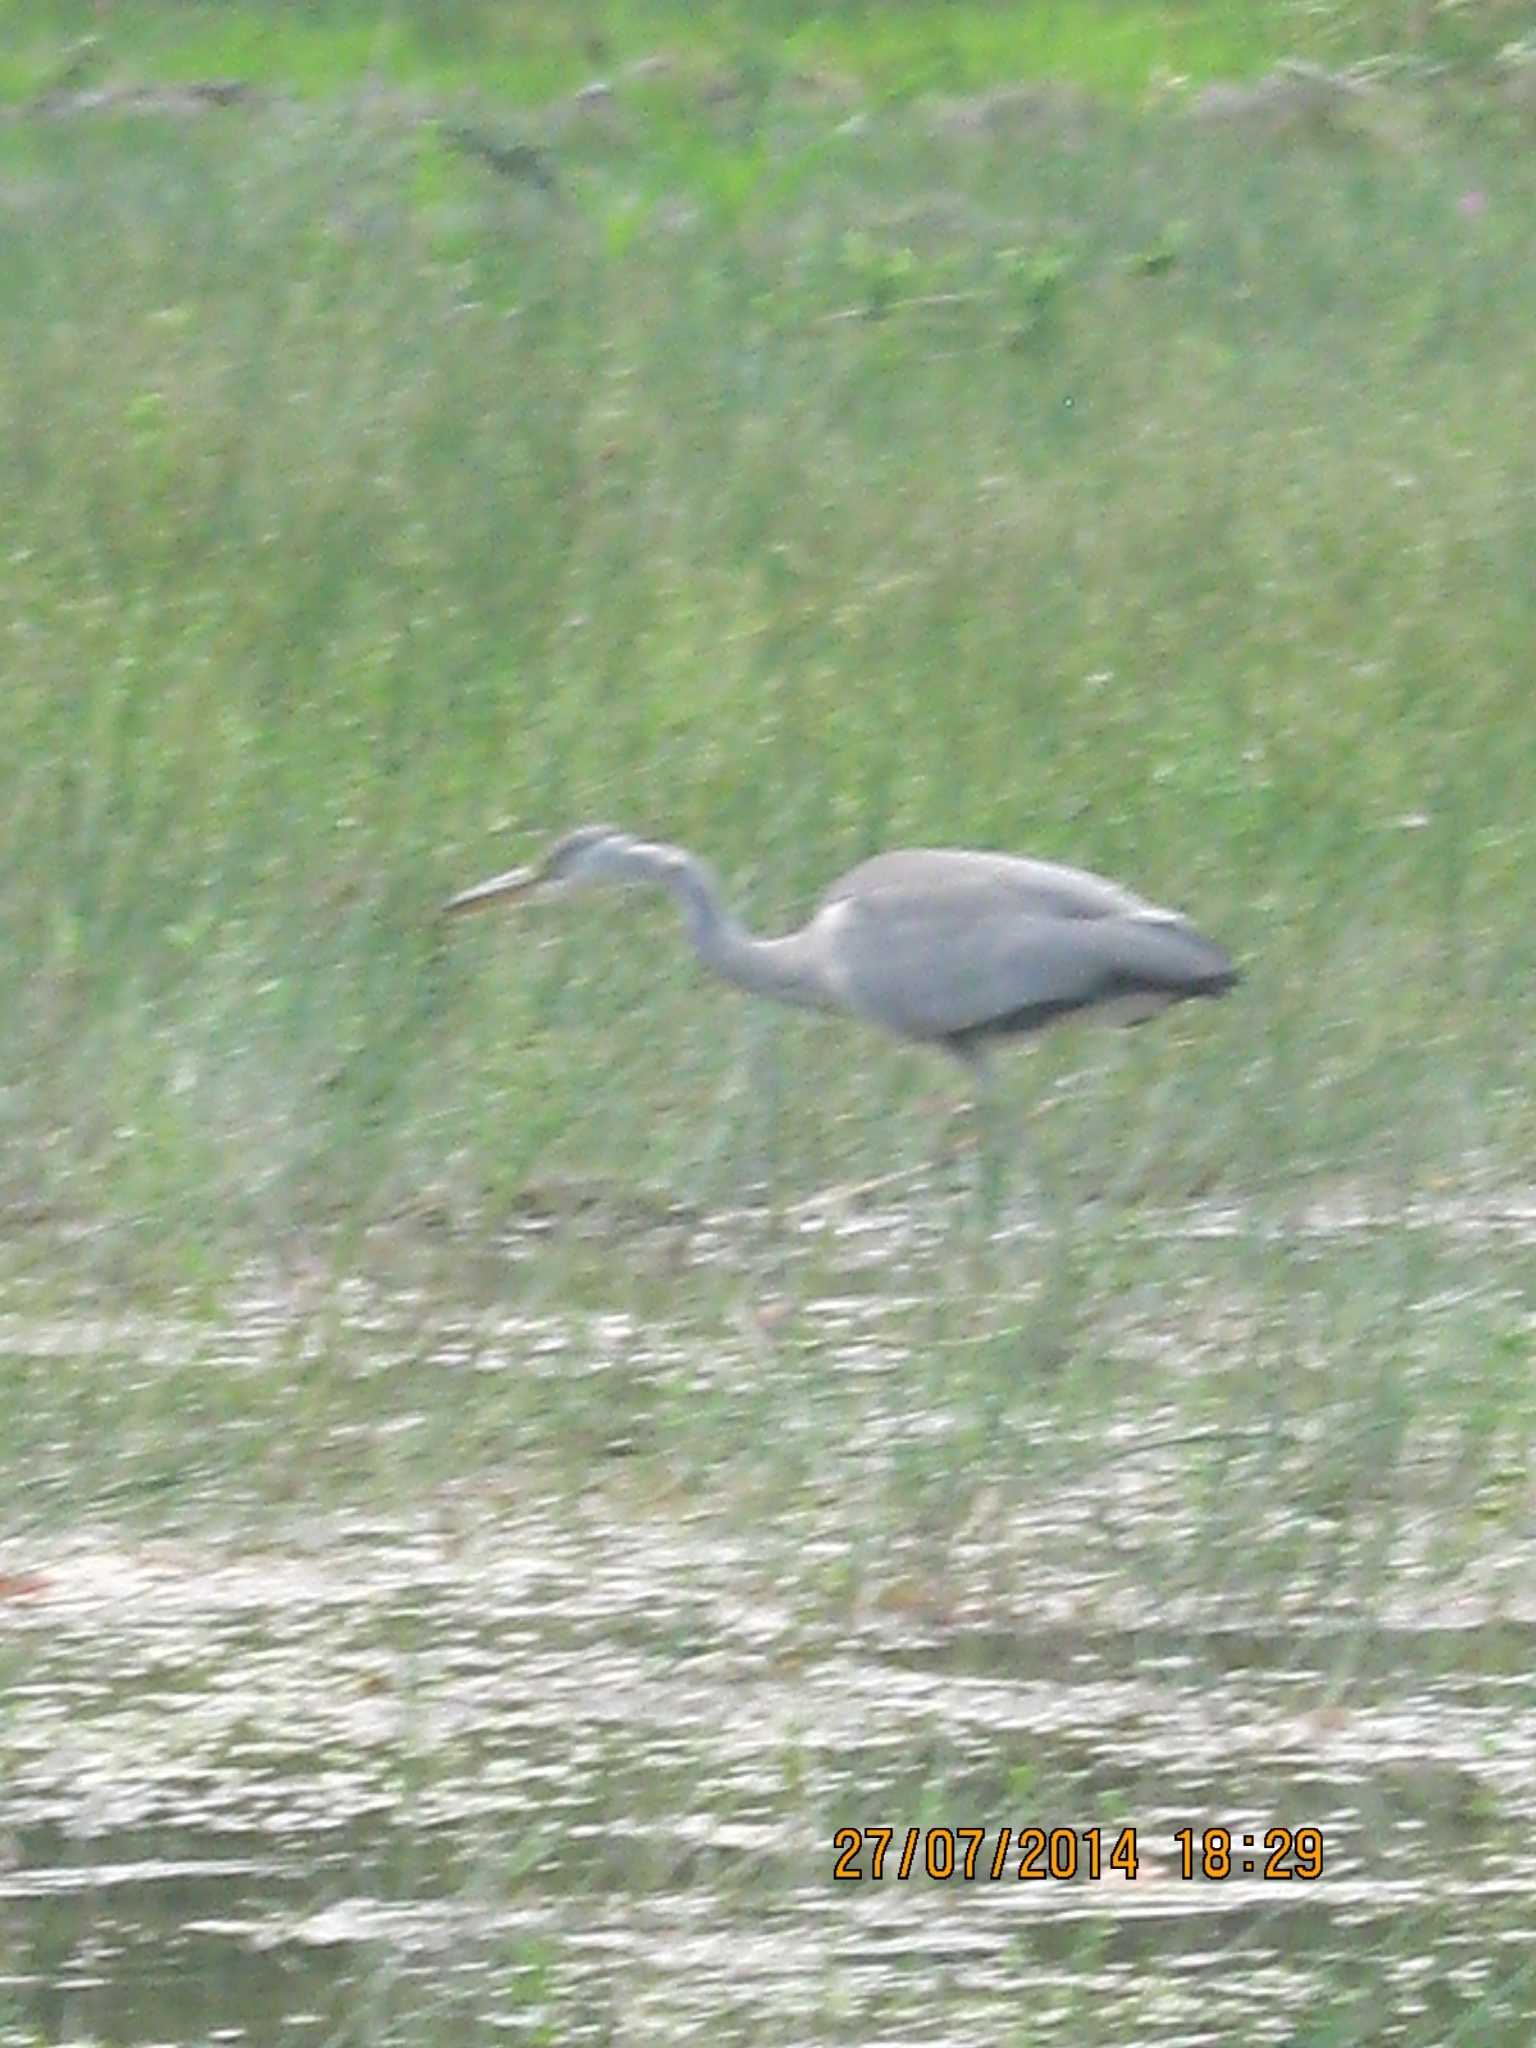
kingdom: Animalia
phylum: Chordata
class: Aves
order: Pelecaniformes
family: Ardeidae
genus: Ardea
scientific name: Ardea cinerea
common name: Grey heron
